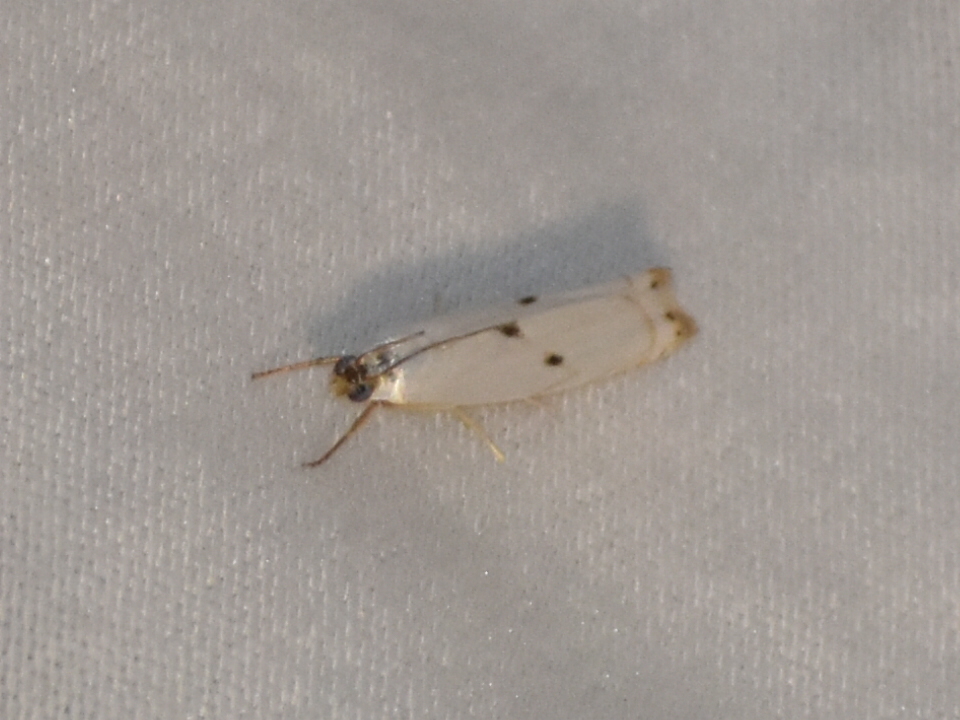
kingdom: Animalia
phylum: Arthropoda
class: Insecta
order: Lepidoptera
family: Crambidae
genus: Microcrambus
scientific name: Microcrambus biguttellus
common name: Gold-stripe grass-veneer moth
